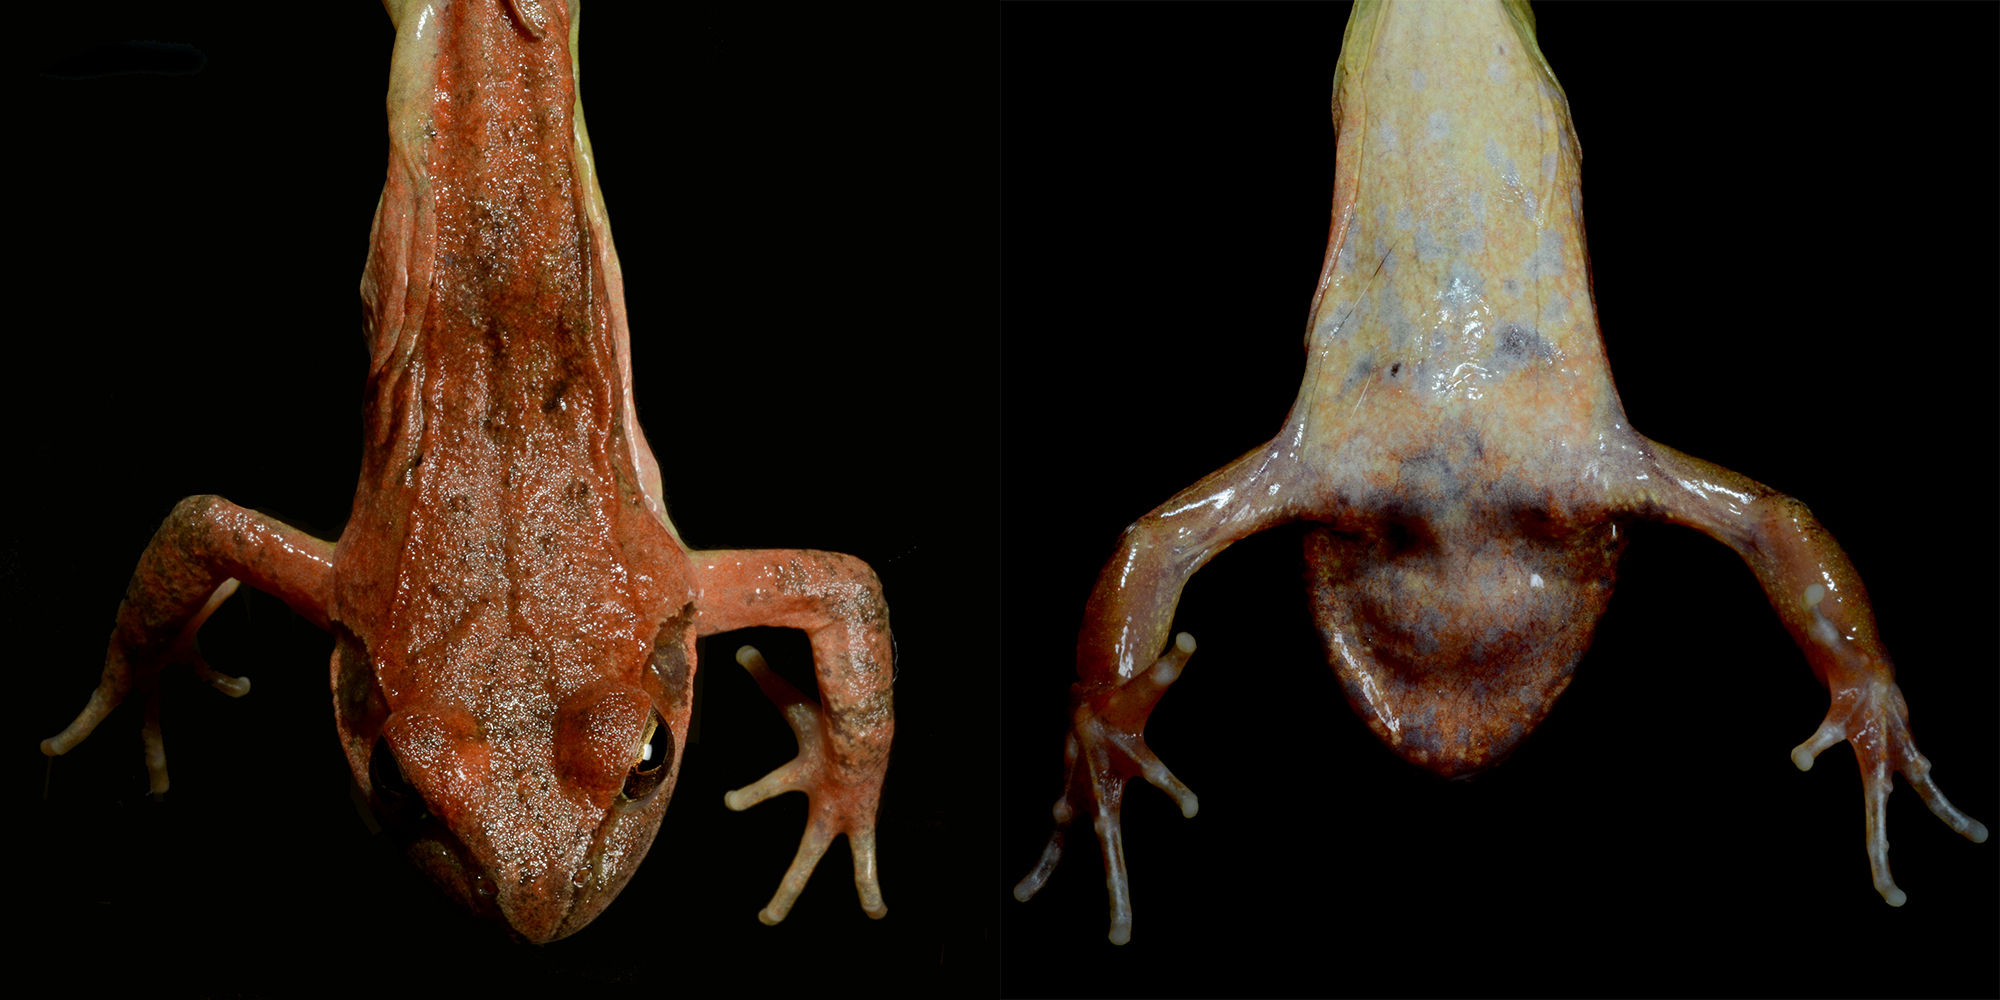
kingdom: Animalia
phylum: Chordata
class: Amphibia
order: Anura
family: Ranidae
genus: Rana
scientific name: Rana huanrenensis
